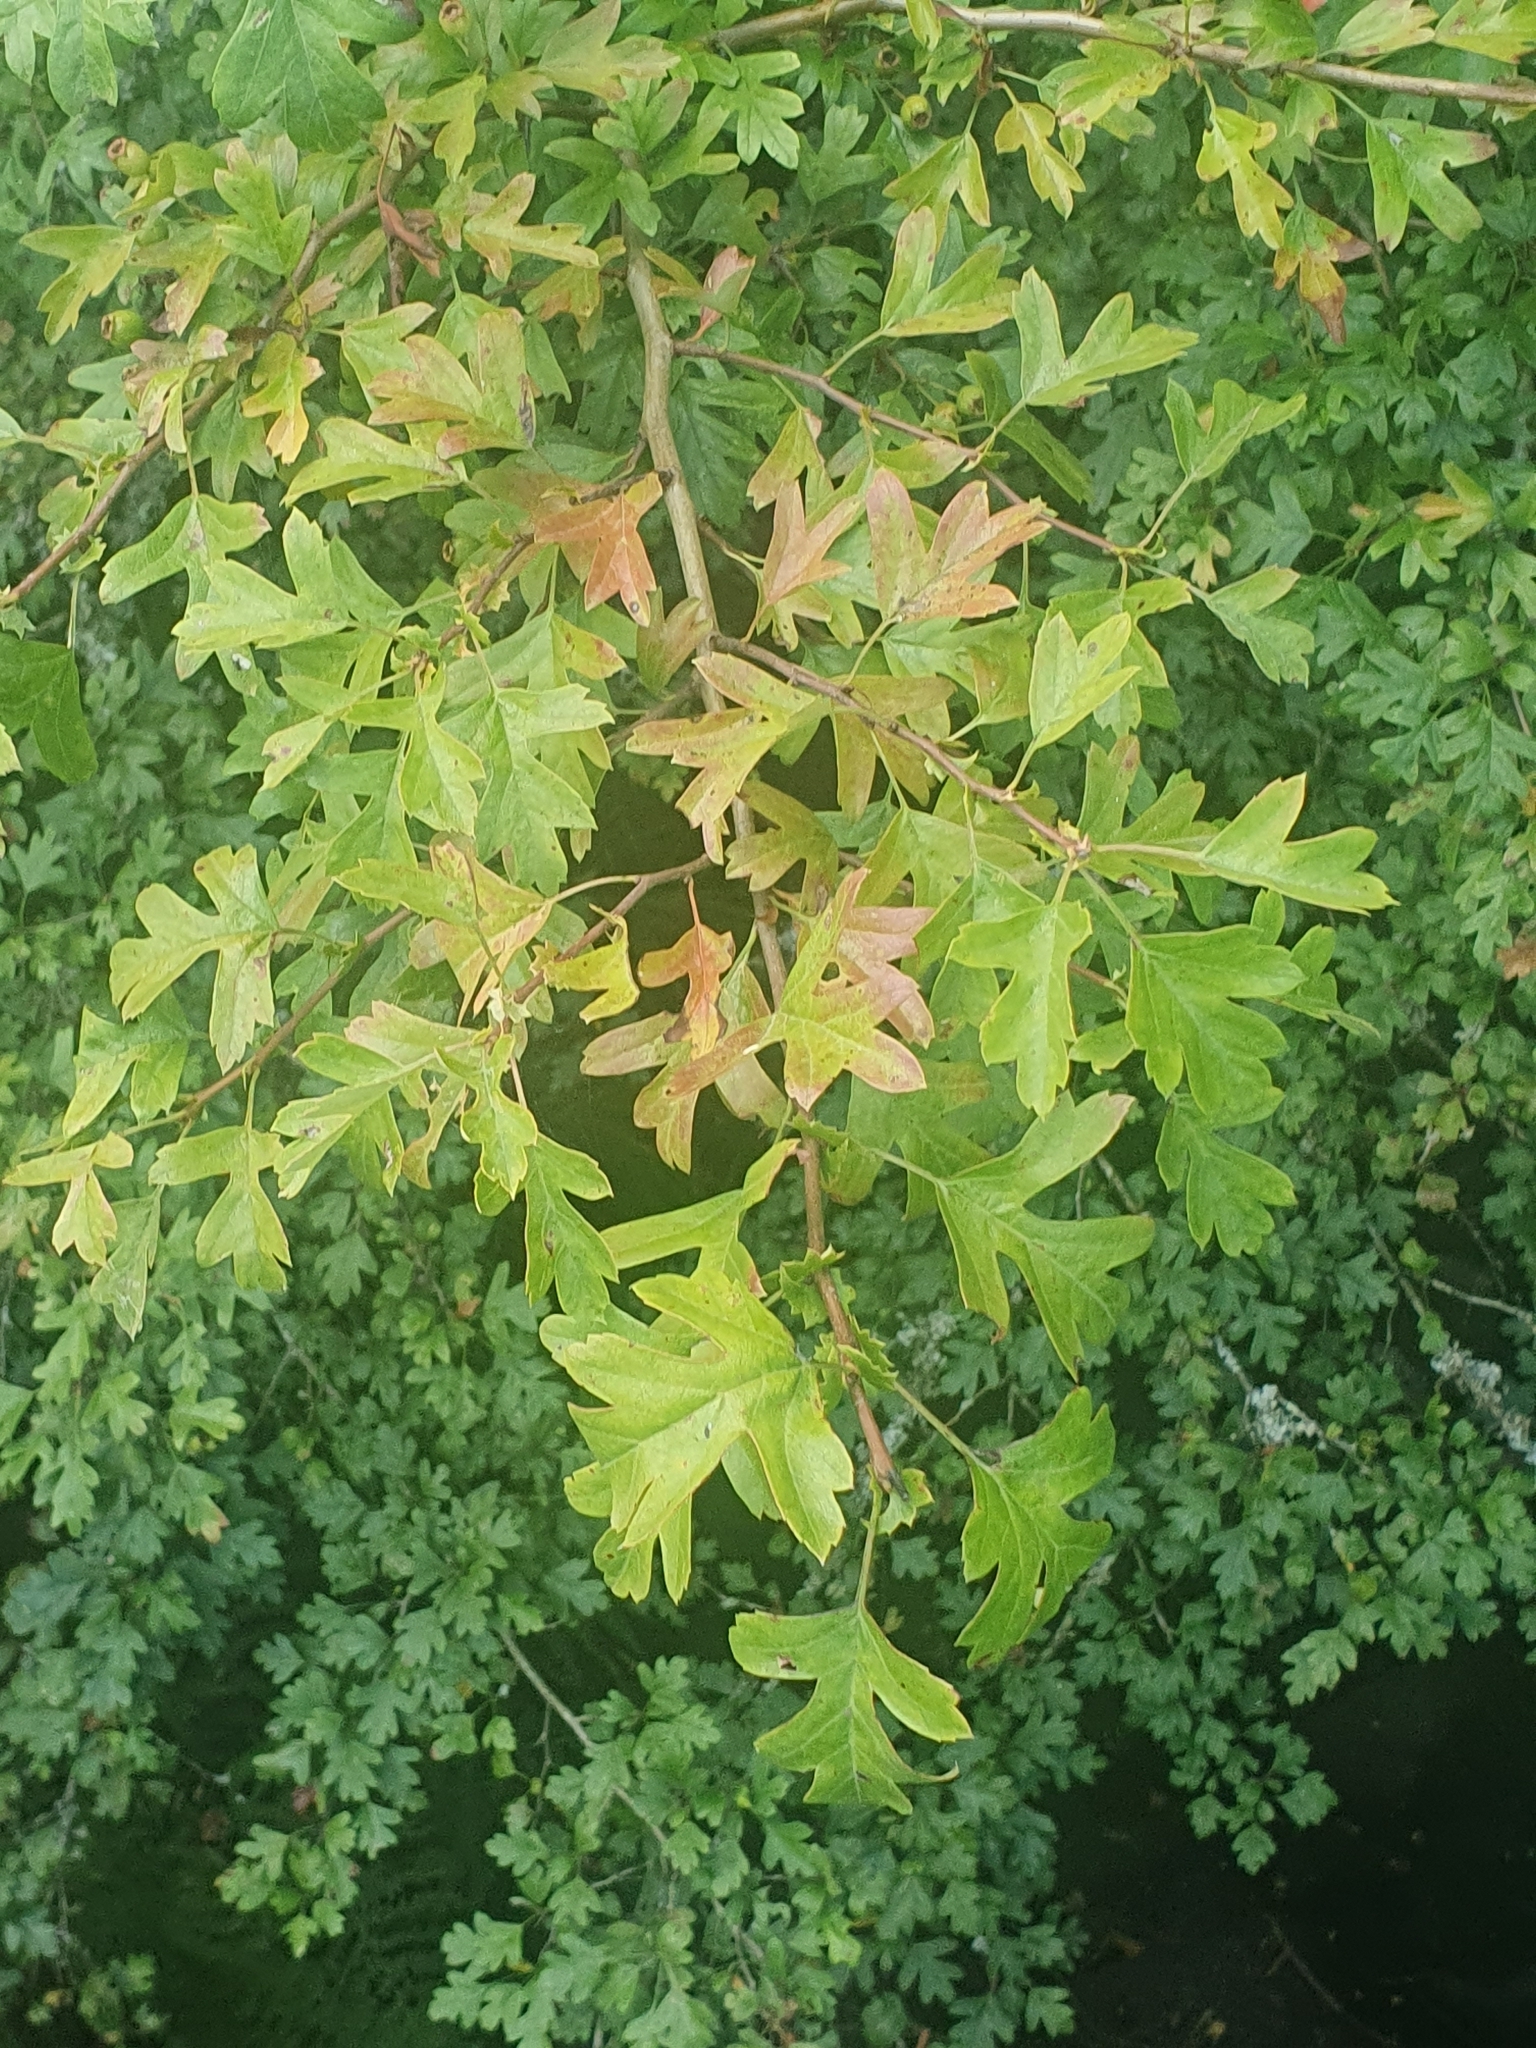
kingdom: Plantae
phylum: Tracheophyta
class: Magnoliopsida
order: Rosales
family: Rosaceae
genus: Crataegus
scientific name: Crataegus monogyna
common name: Hawthorn
